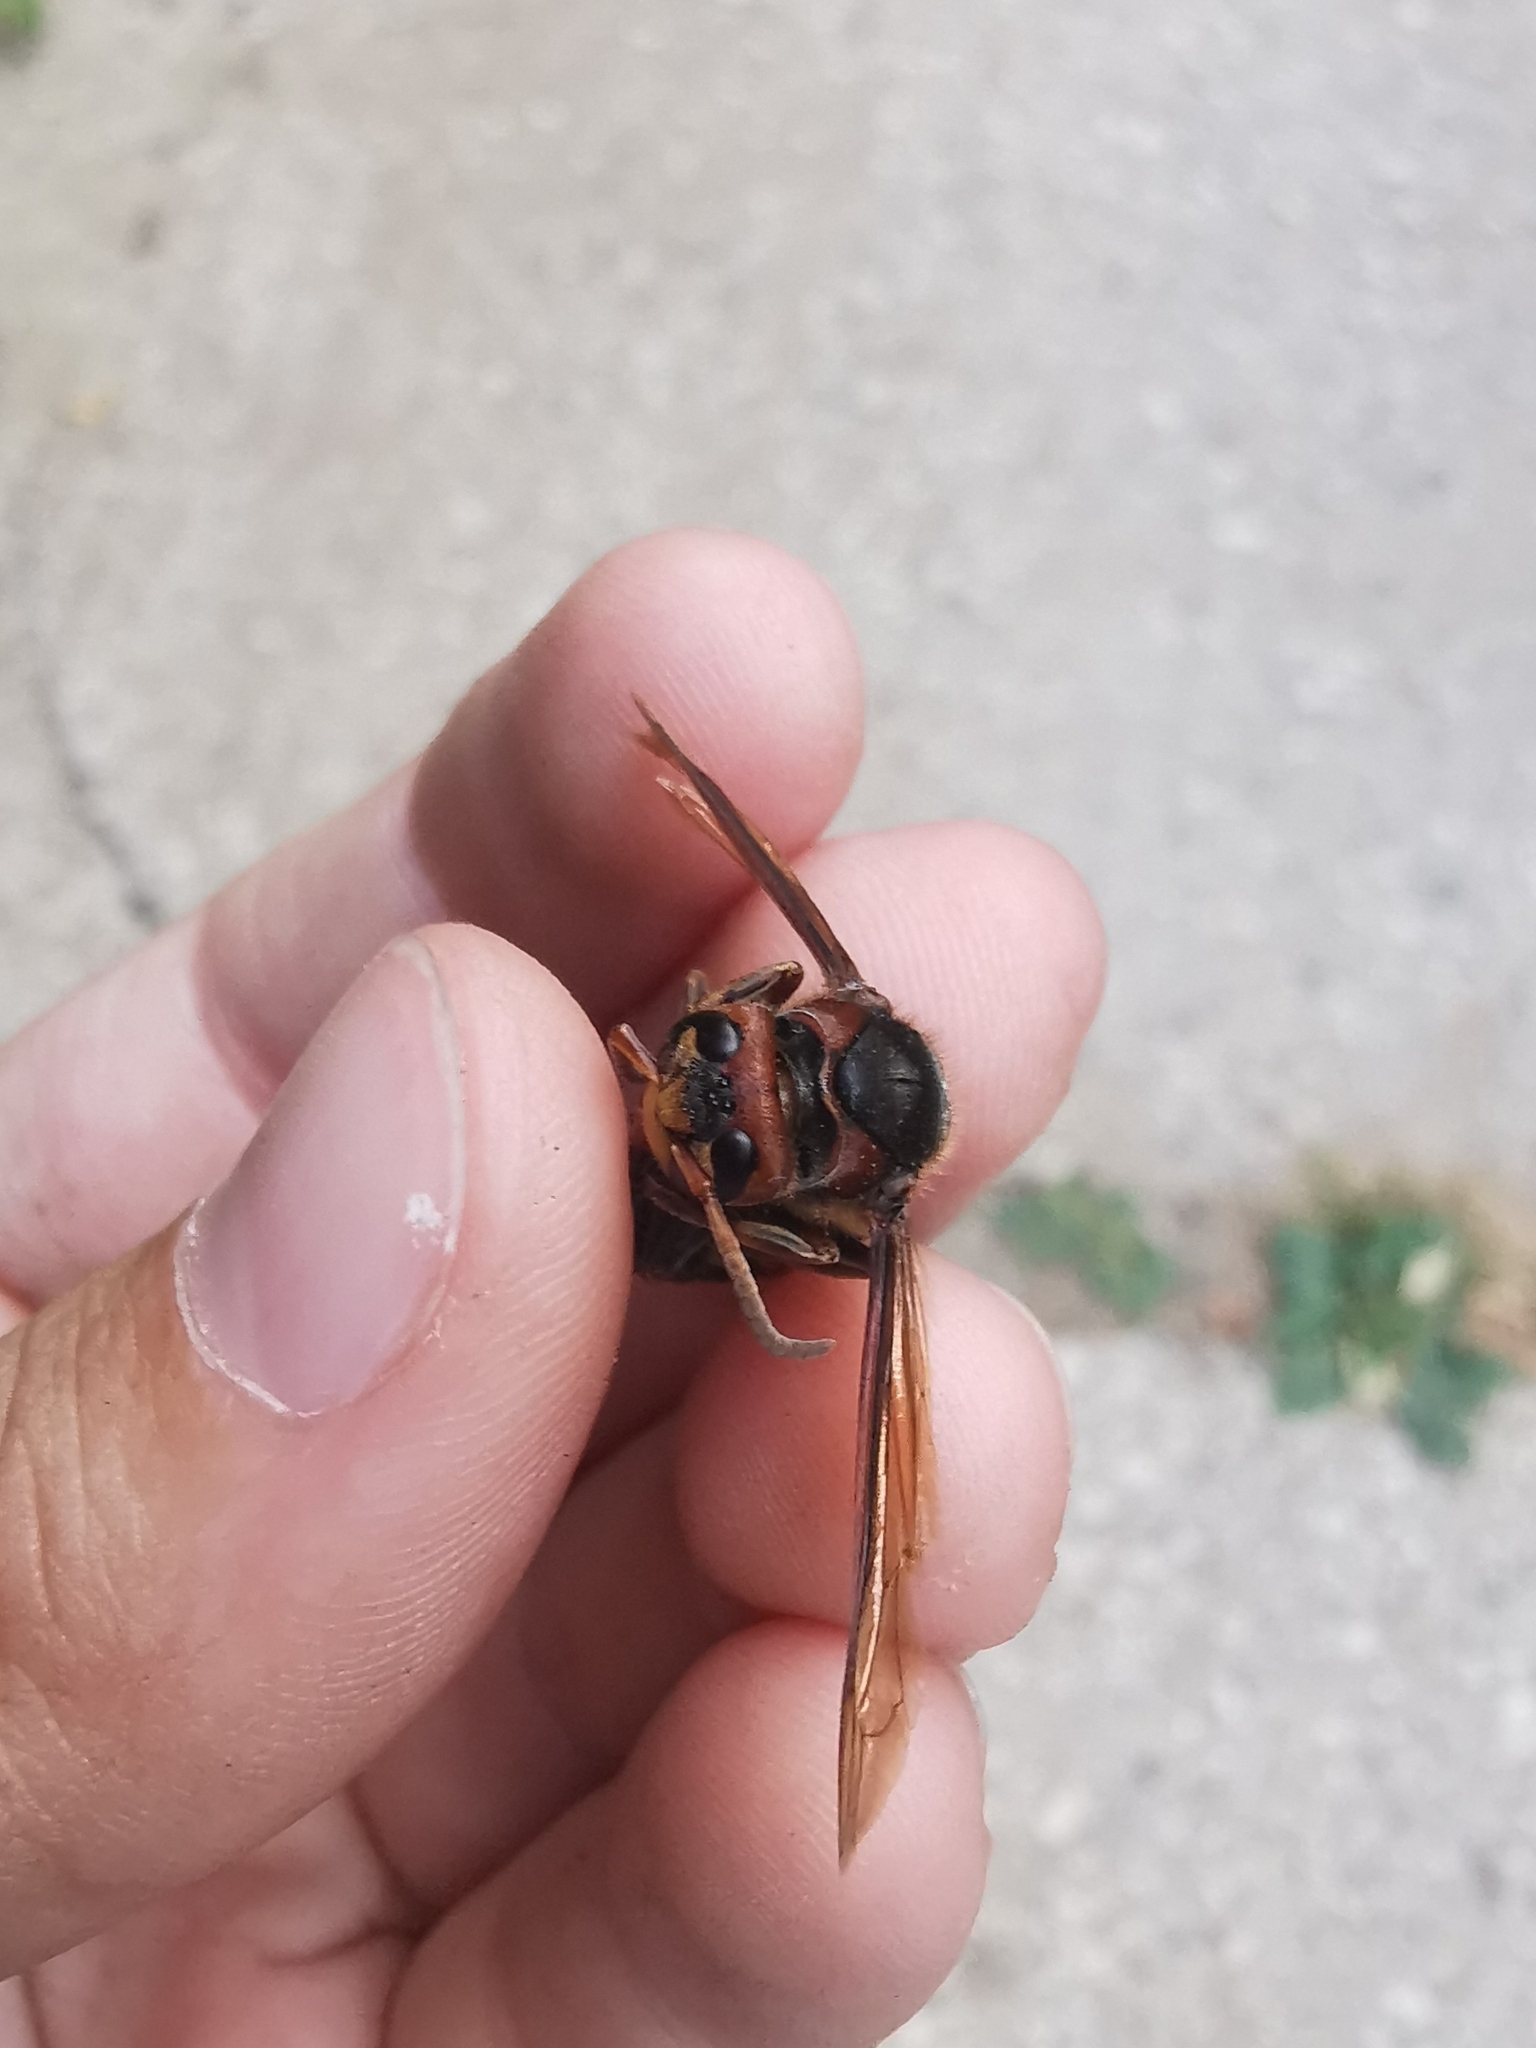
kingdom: Animalia
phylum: Arthropoda
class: Insecta
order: Hymenoptera
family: Vespidae
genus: Vespa
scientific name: Vespa crabro
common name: Hornet
